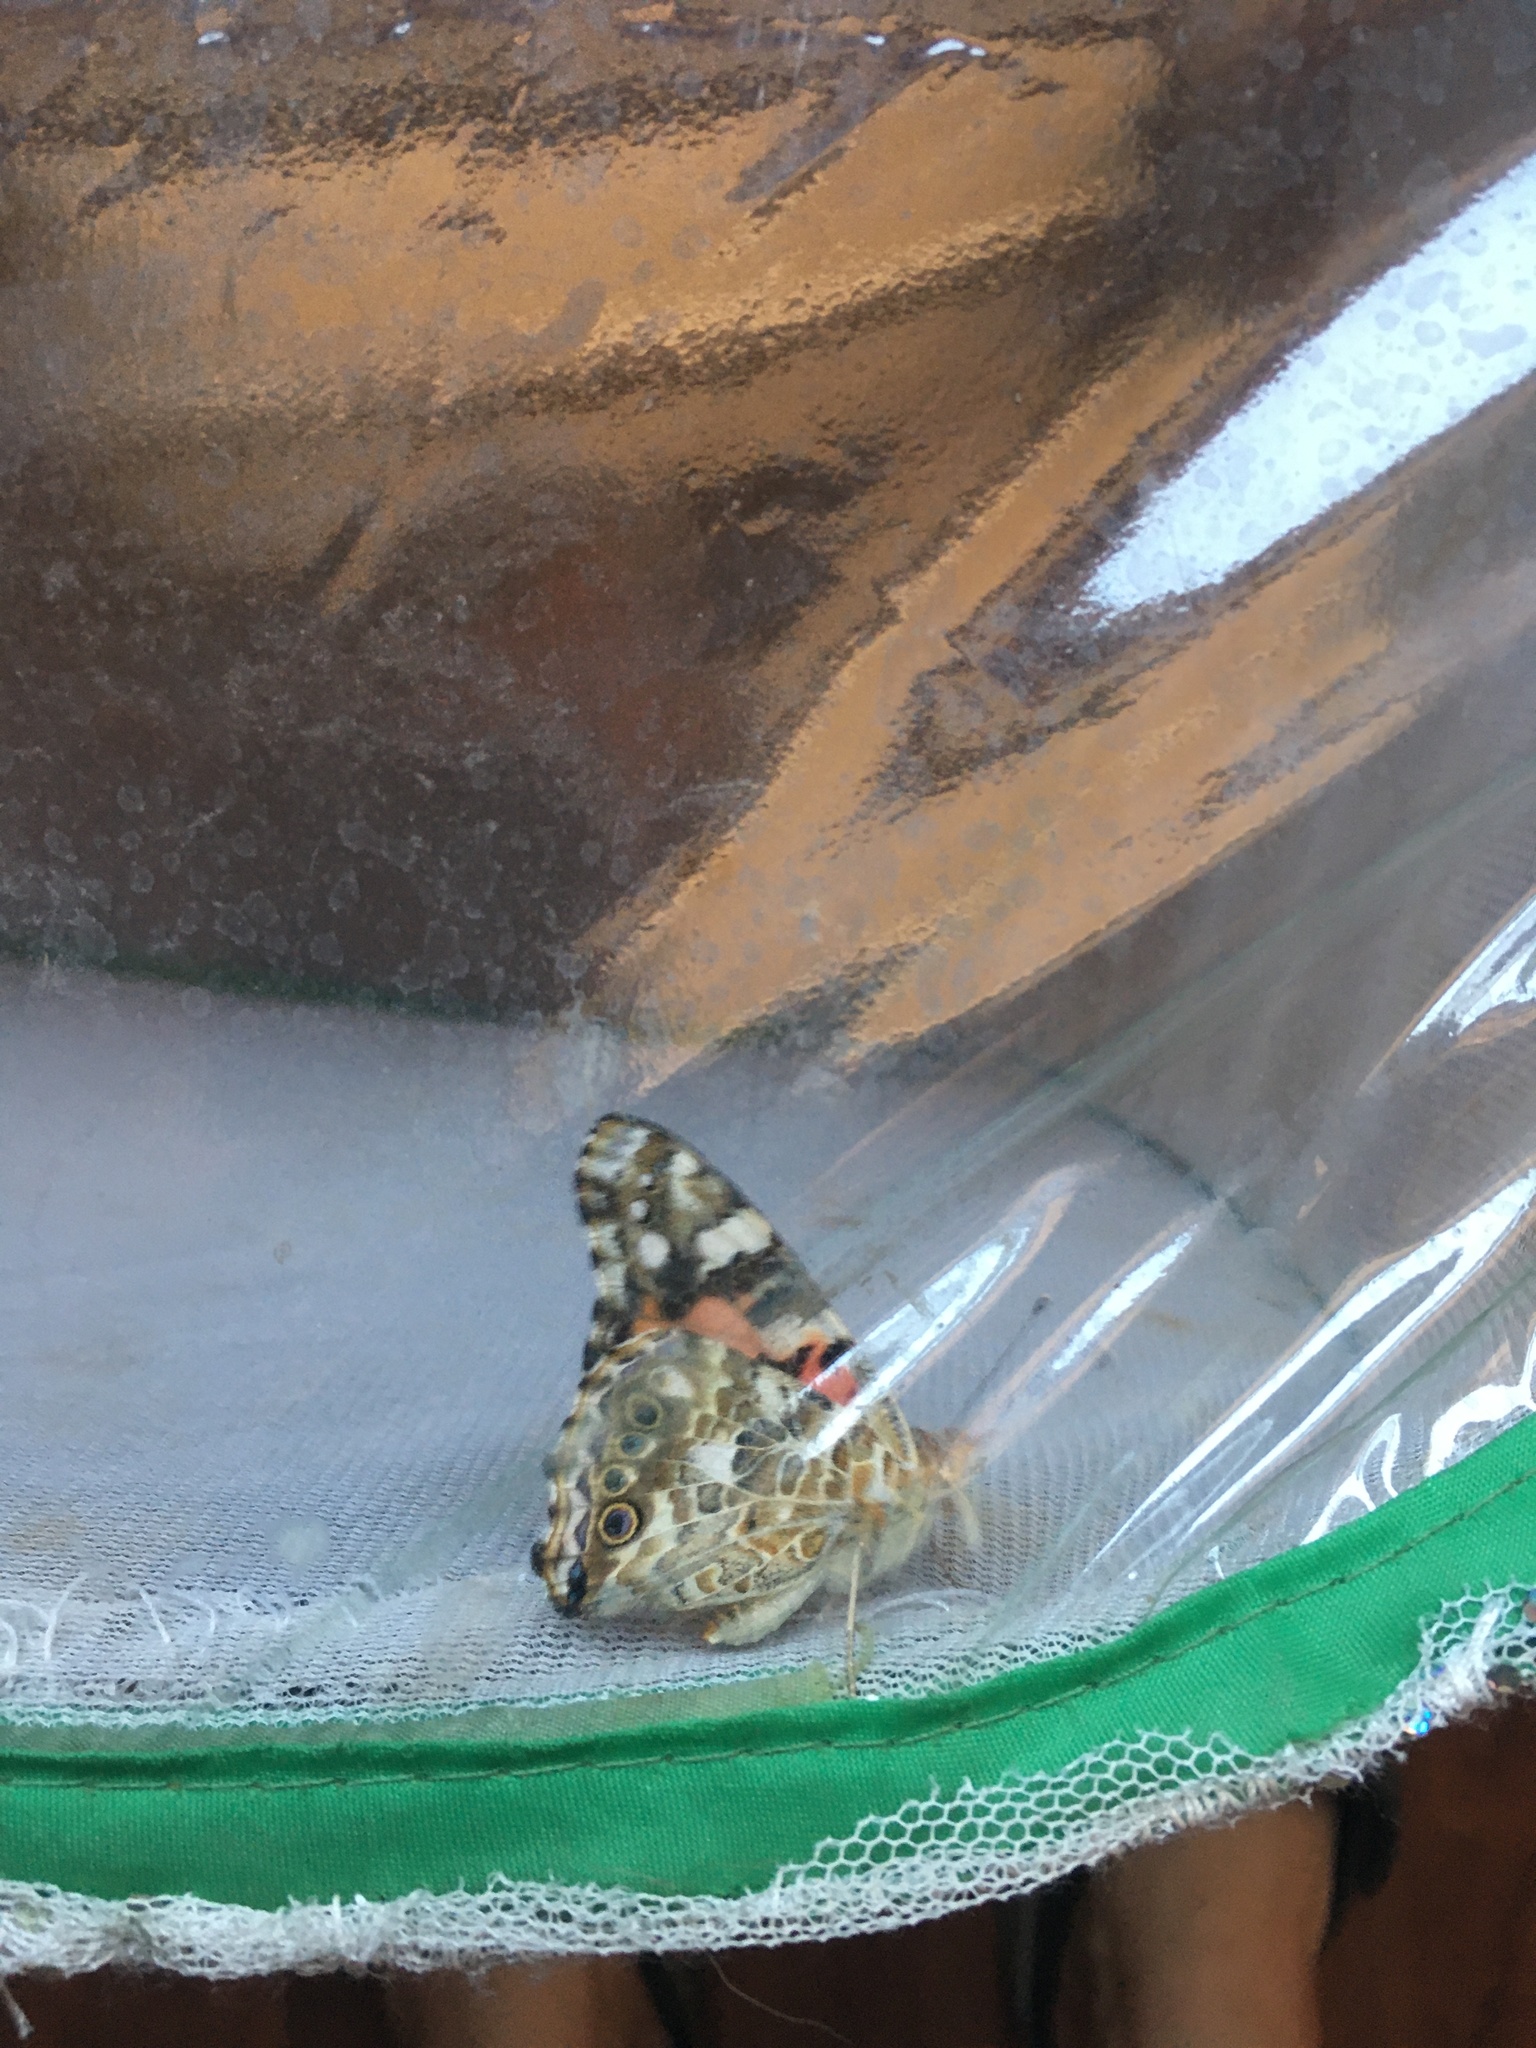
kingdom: Animalia
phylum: Arthropoda
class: Insecta
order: Lepidoptera
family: Nymphalidae
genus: Vanessa
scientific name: Vanessa cardui
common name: Painted lady
